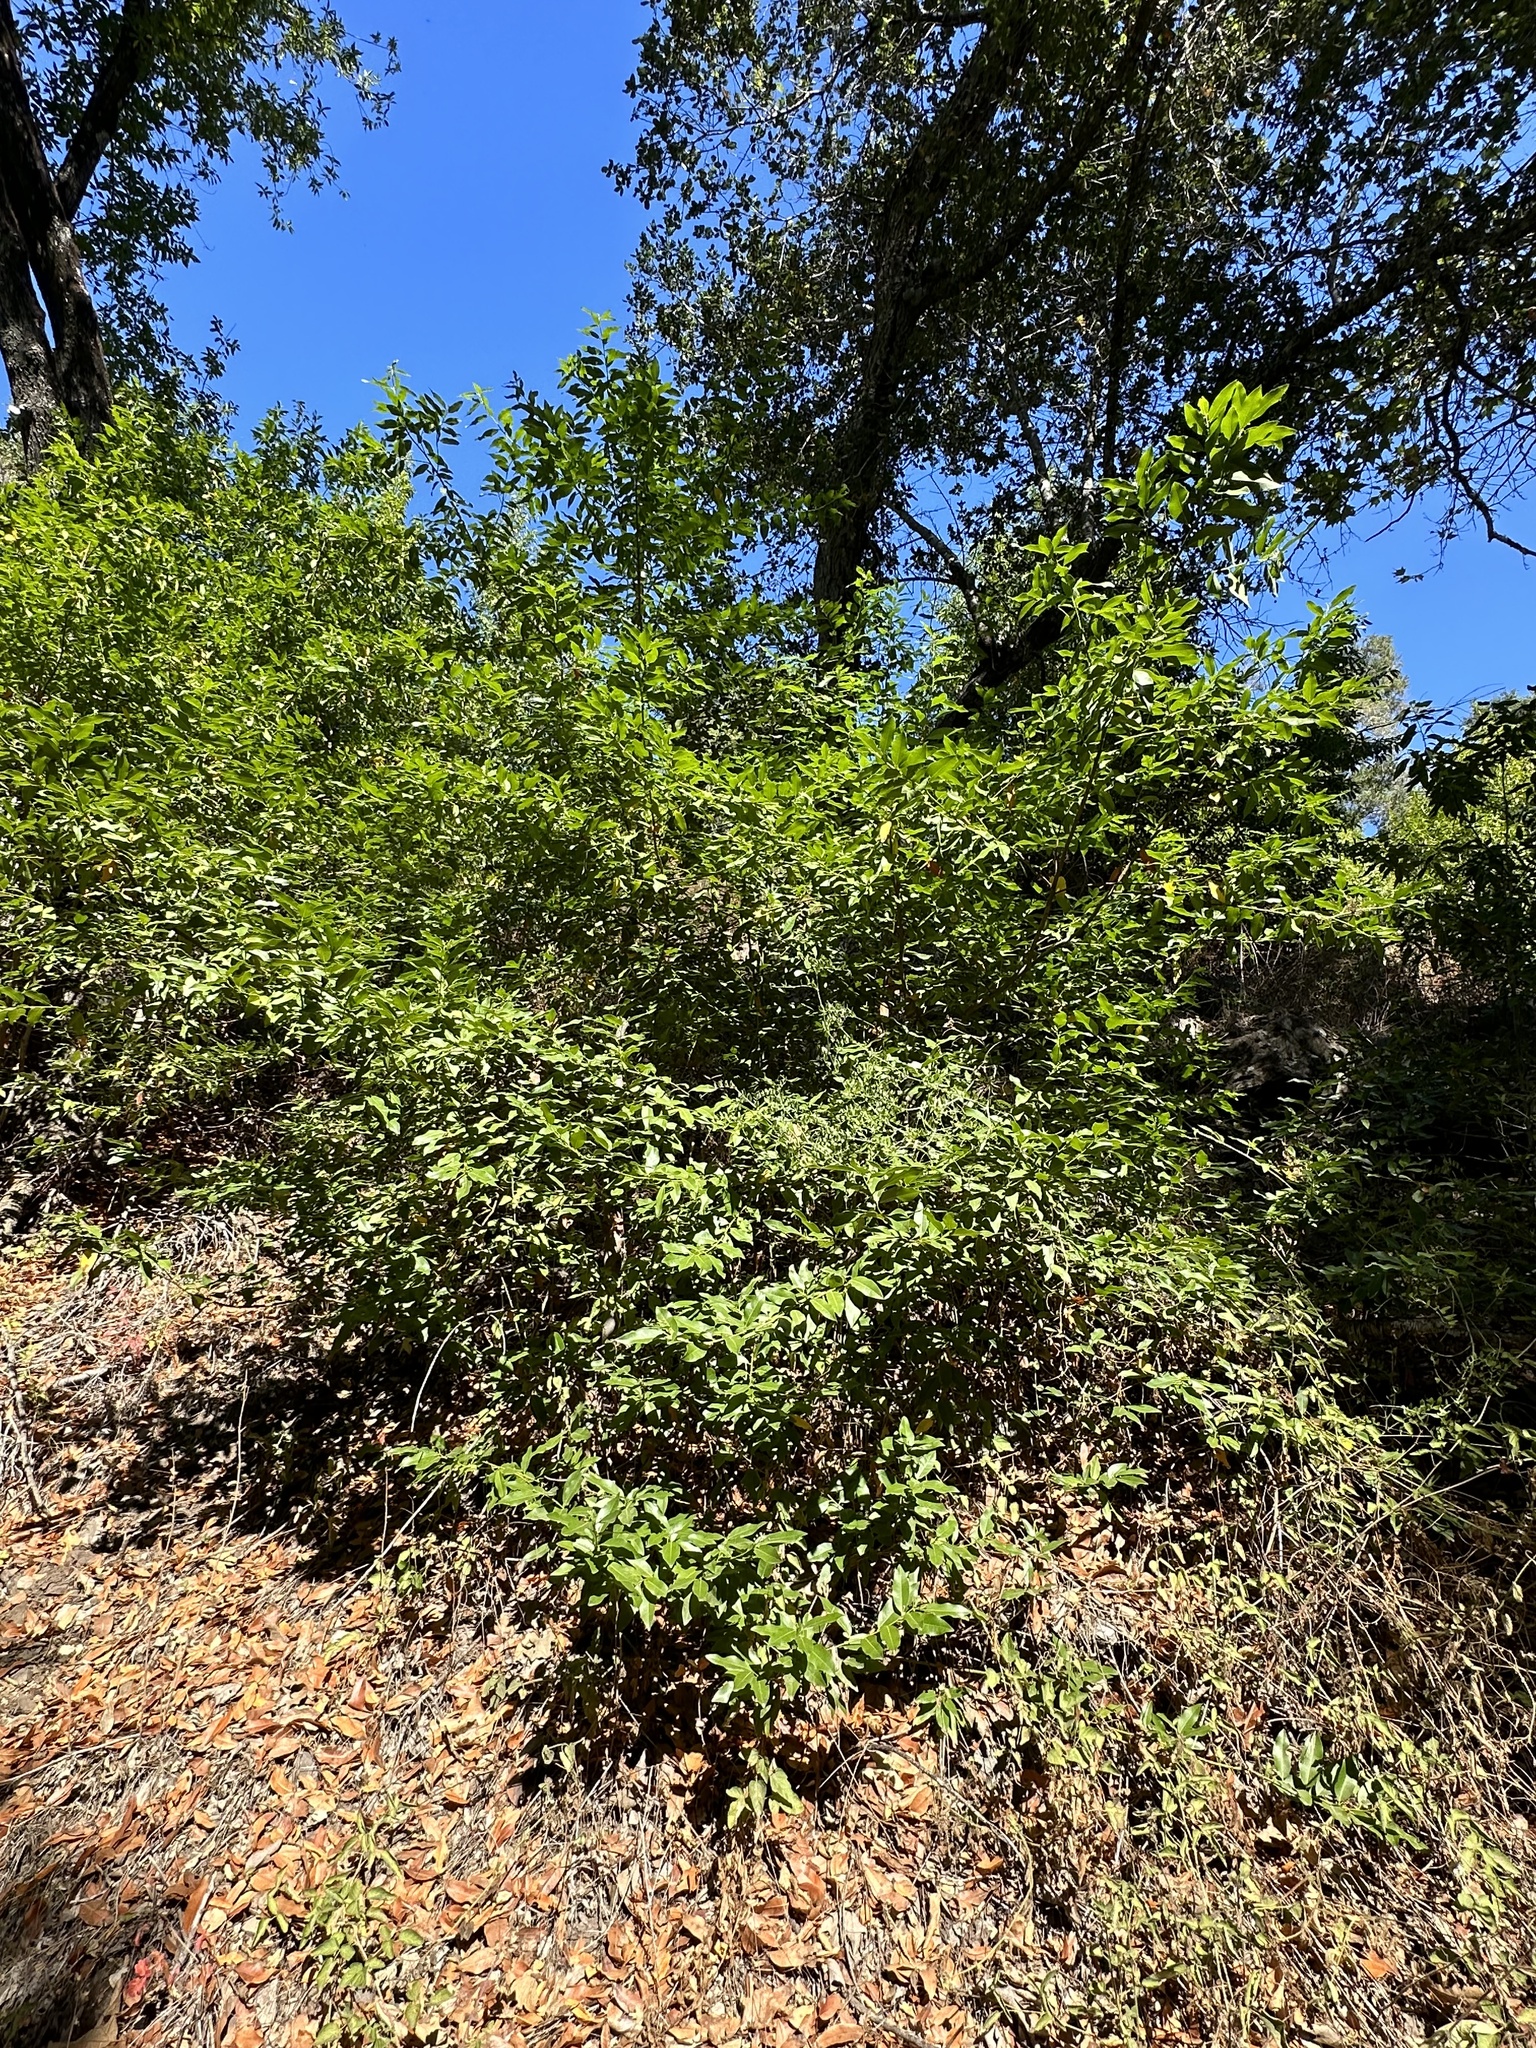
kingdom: Plantae
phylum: Tracheophyta
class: Magnoliopsida
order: Laurales
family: Lauraceae
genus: Umbellularia
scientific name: Umbellularia californica
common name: California bay
